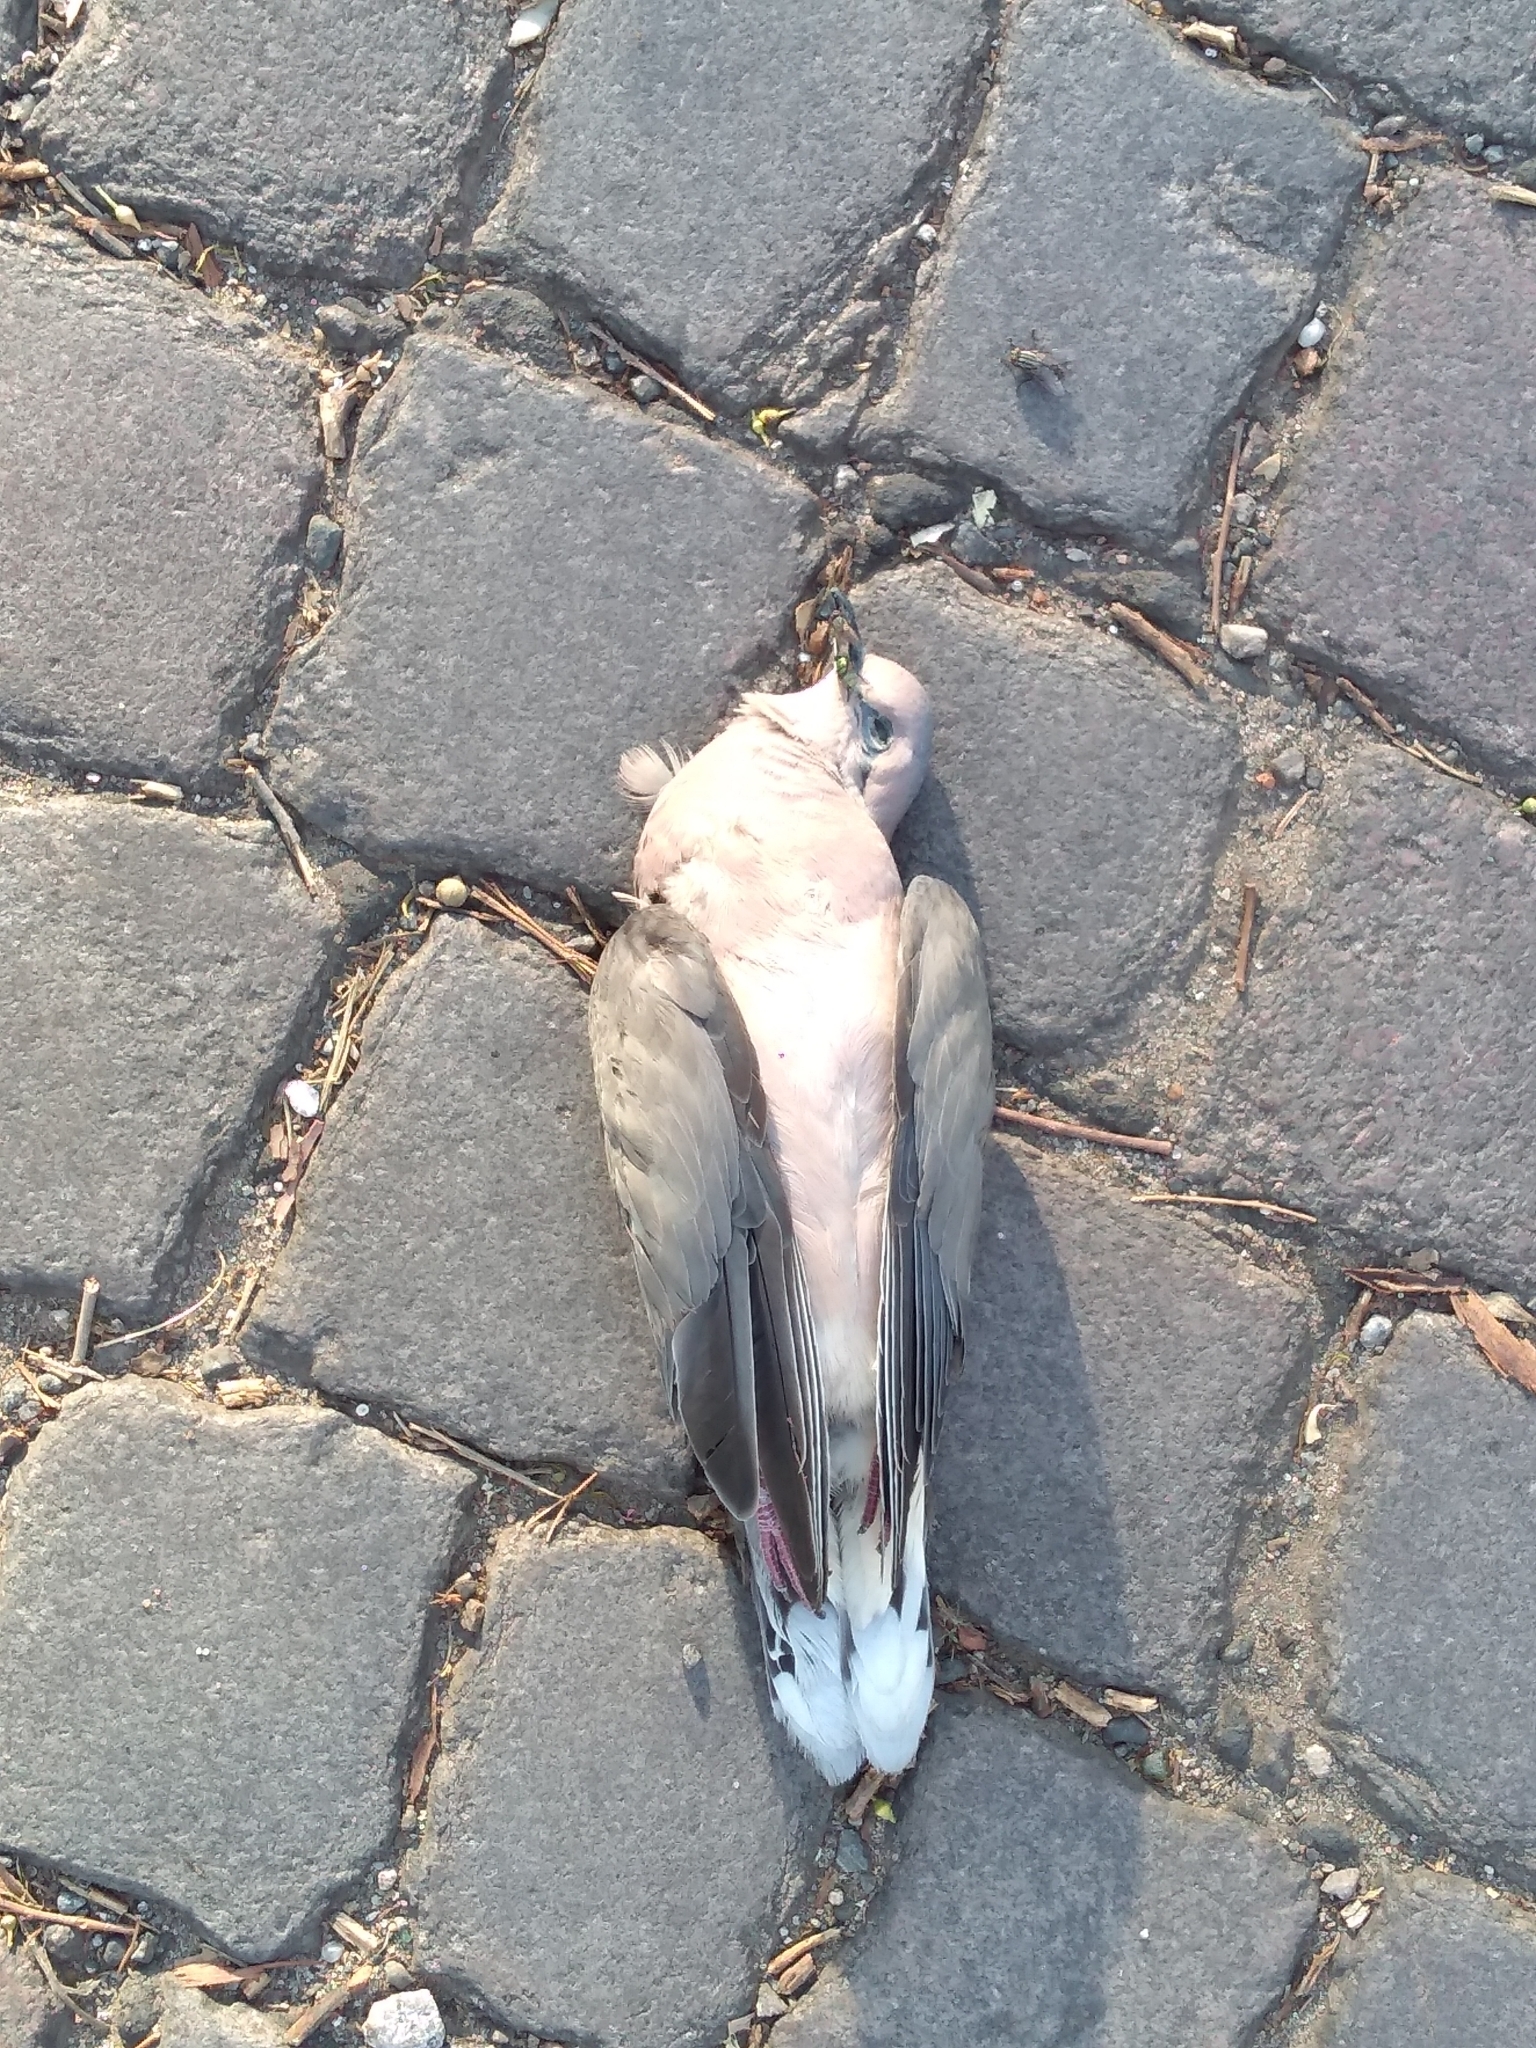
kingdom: Animalia
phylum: Chordata
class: Aves
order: Columbiformes
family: Columbidae
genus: Zenaida
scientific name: Zenaida auriculata
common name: Eared dove
